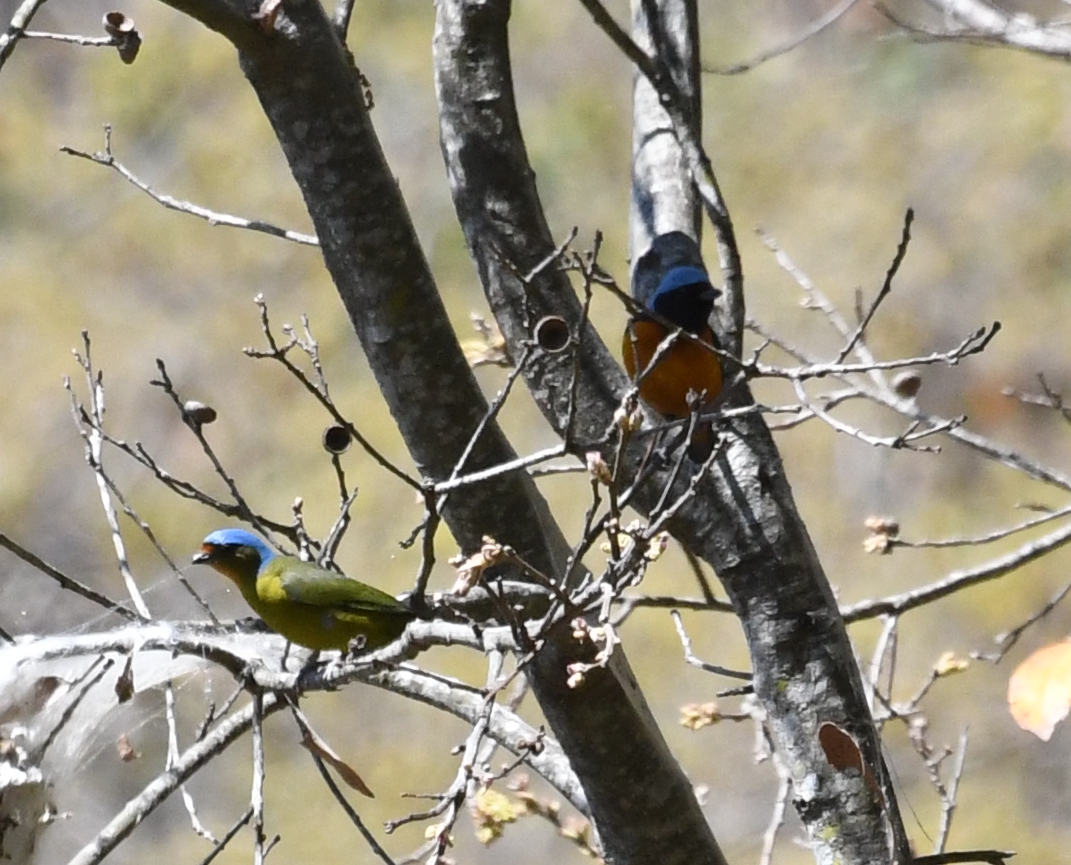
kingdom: Animalia
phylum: Chordata
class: Aves
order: Passeriformes
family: Fringillidae
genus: Euphonia
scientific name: Euphonia elegantissima
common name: Elegant euphonia
